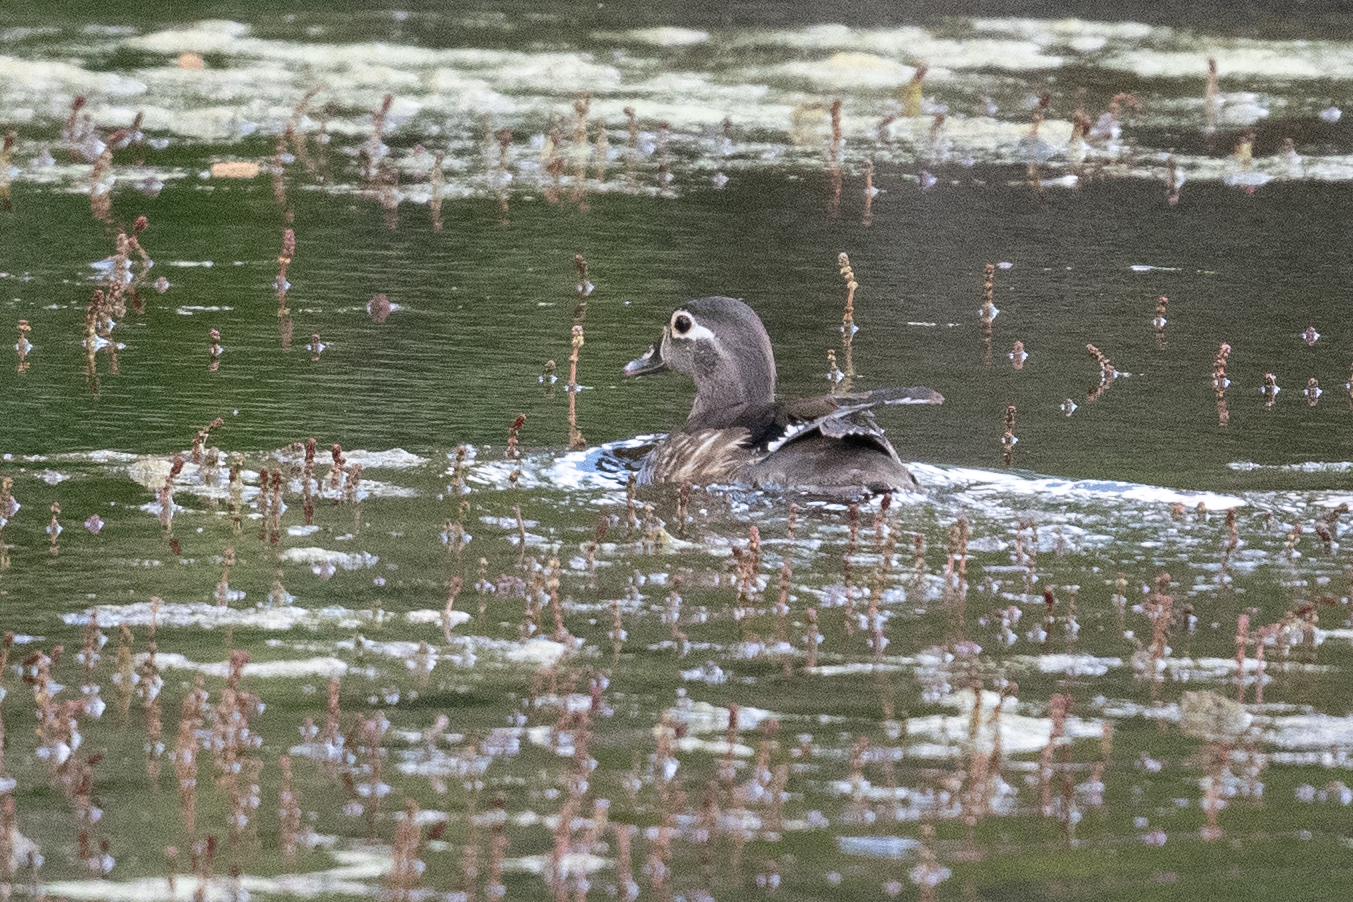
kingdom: Animalia
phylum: Chordata
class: Aves
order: Anseriformes
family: Anatidae
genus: Aix
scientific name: Aix sponsa
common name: Wood duck
